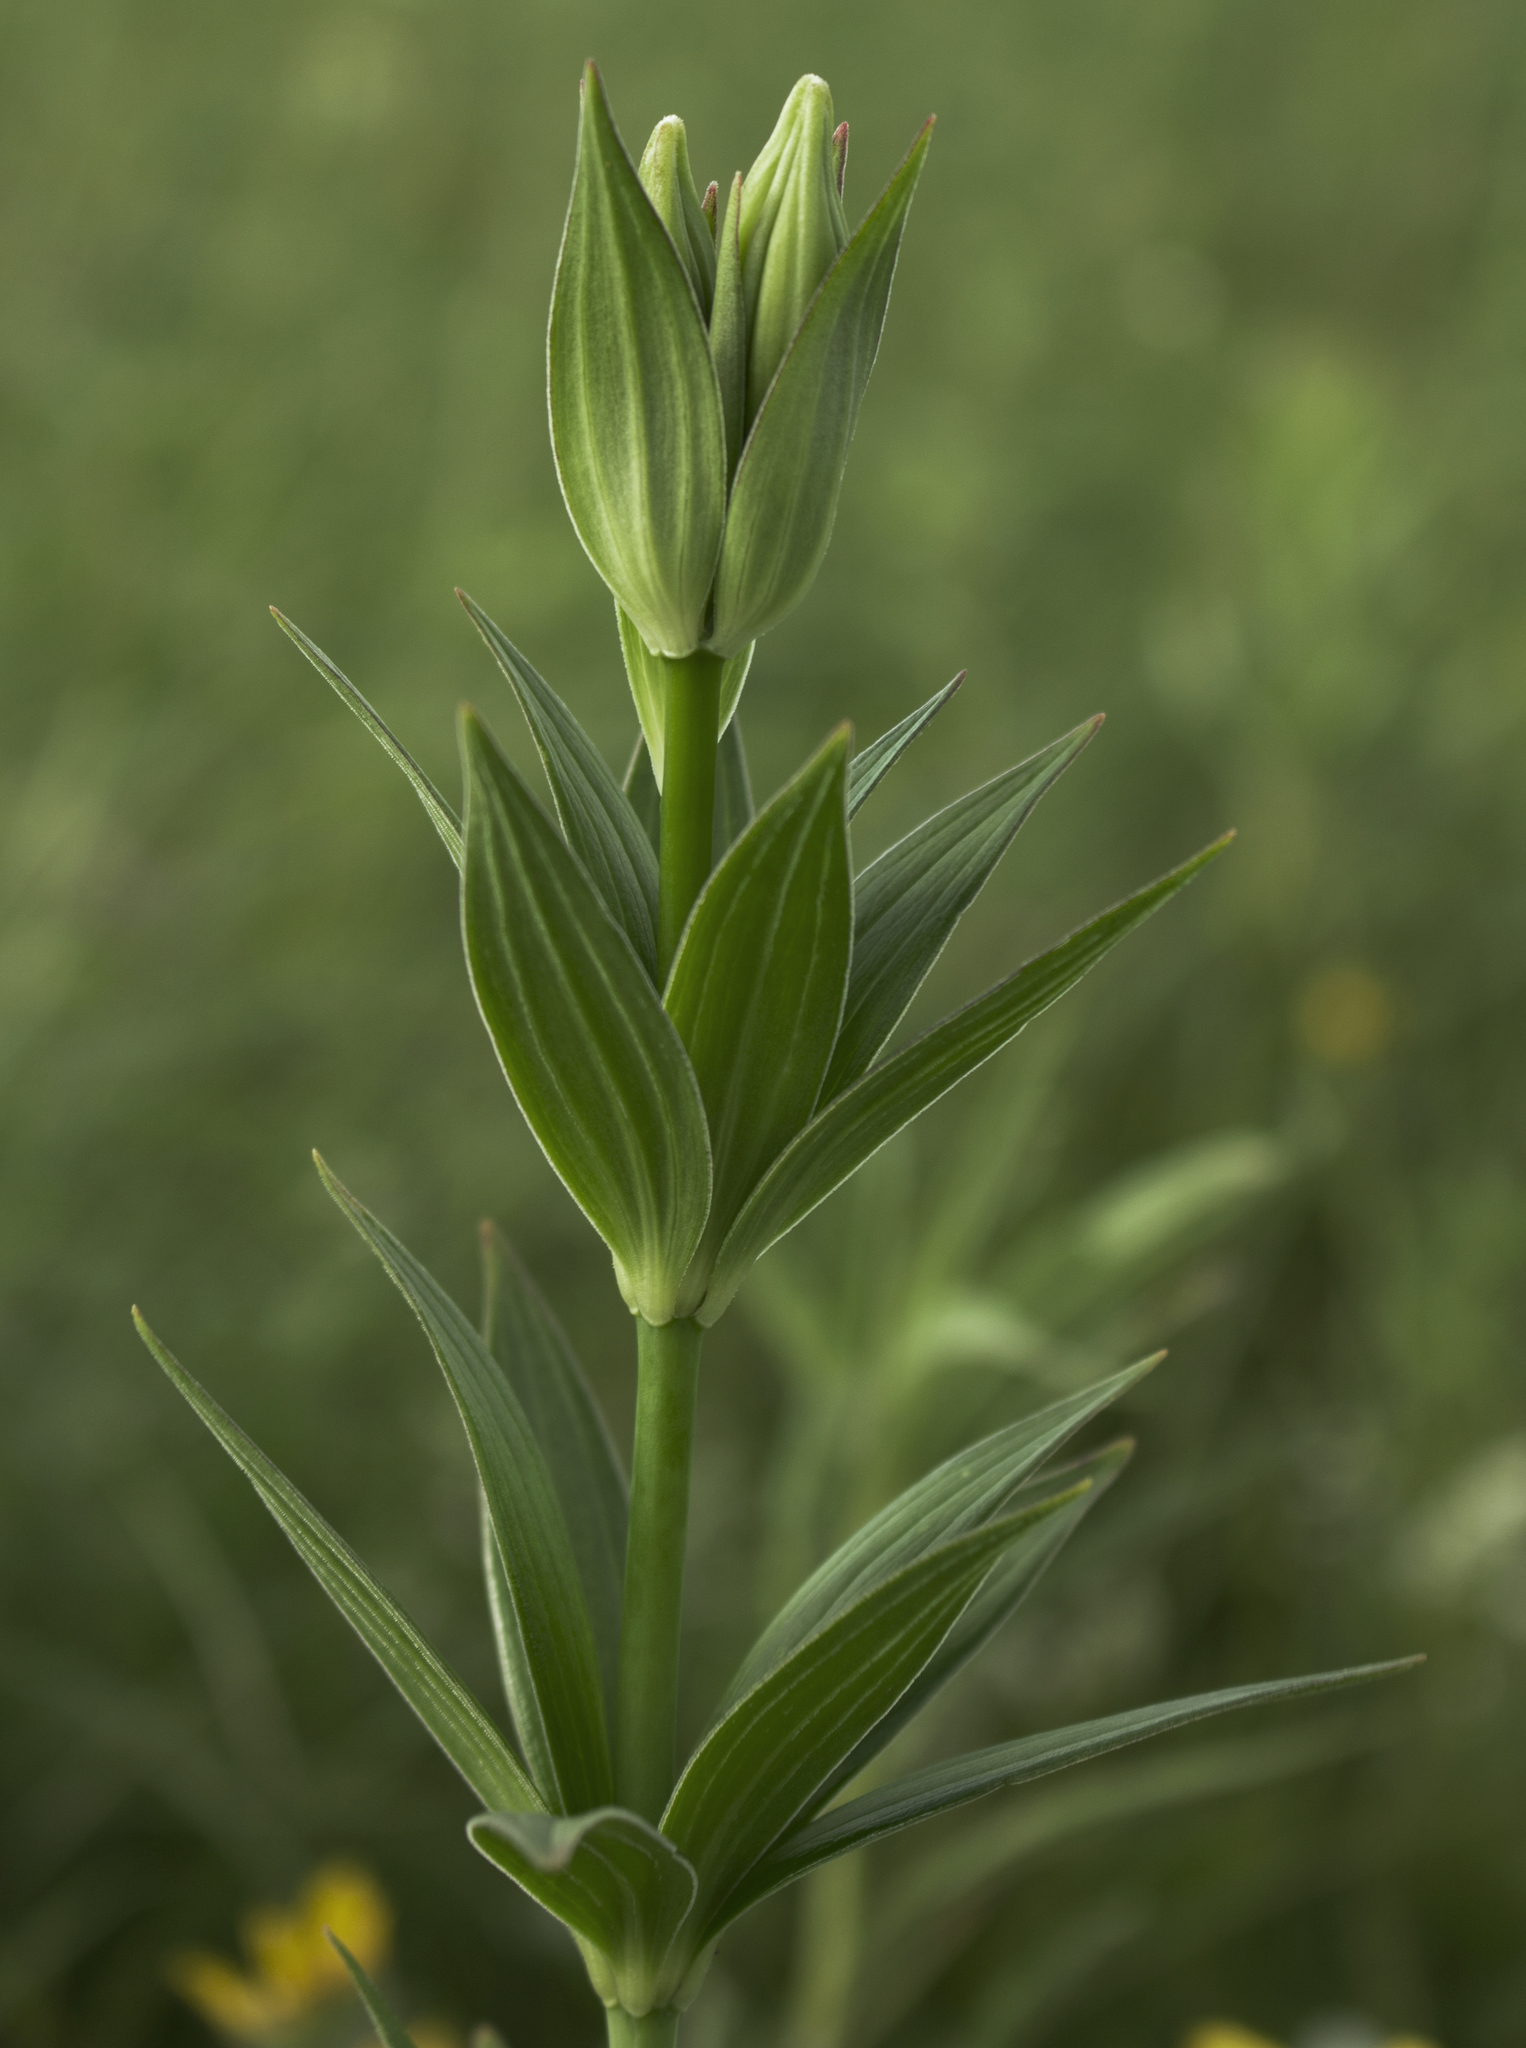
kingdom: Plantae
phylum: Tracheophyta
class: Liliopsida
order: Liliales
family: Liliaceae
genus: Lilium
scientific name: Lilium michiganense
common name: Michigan lily
